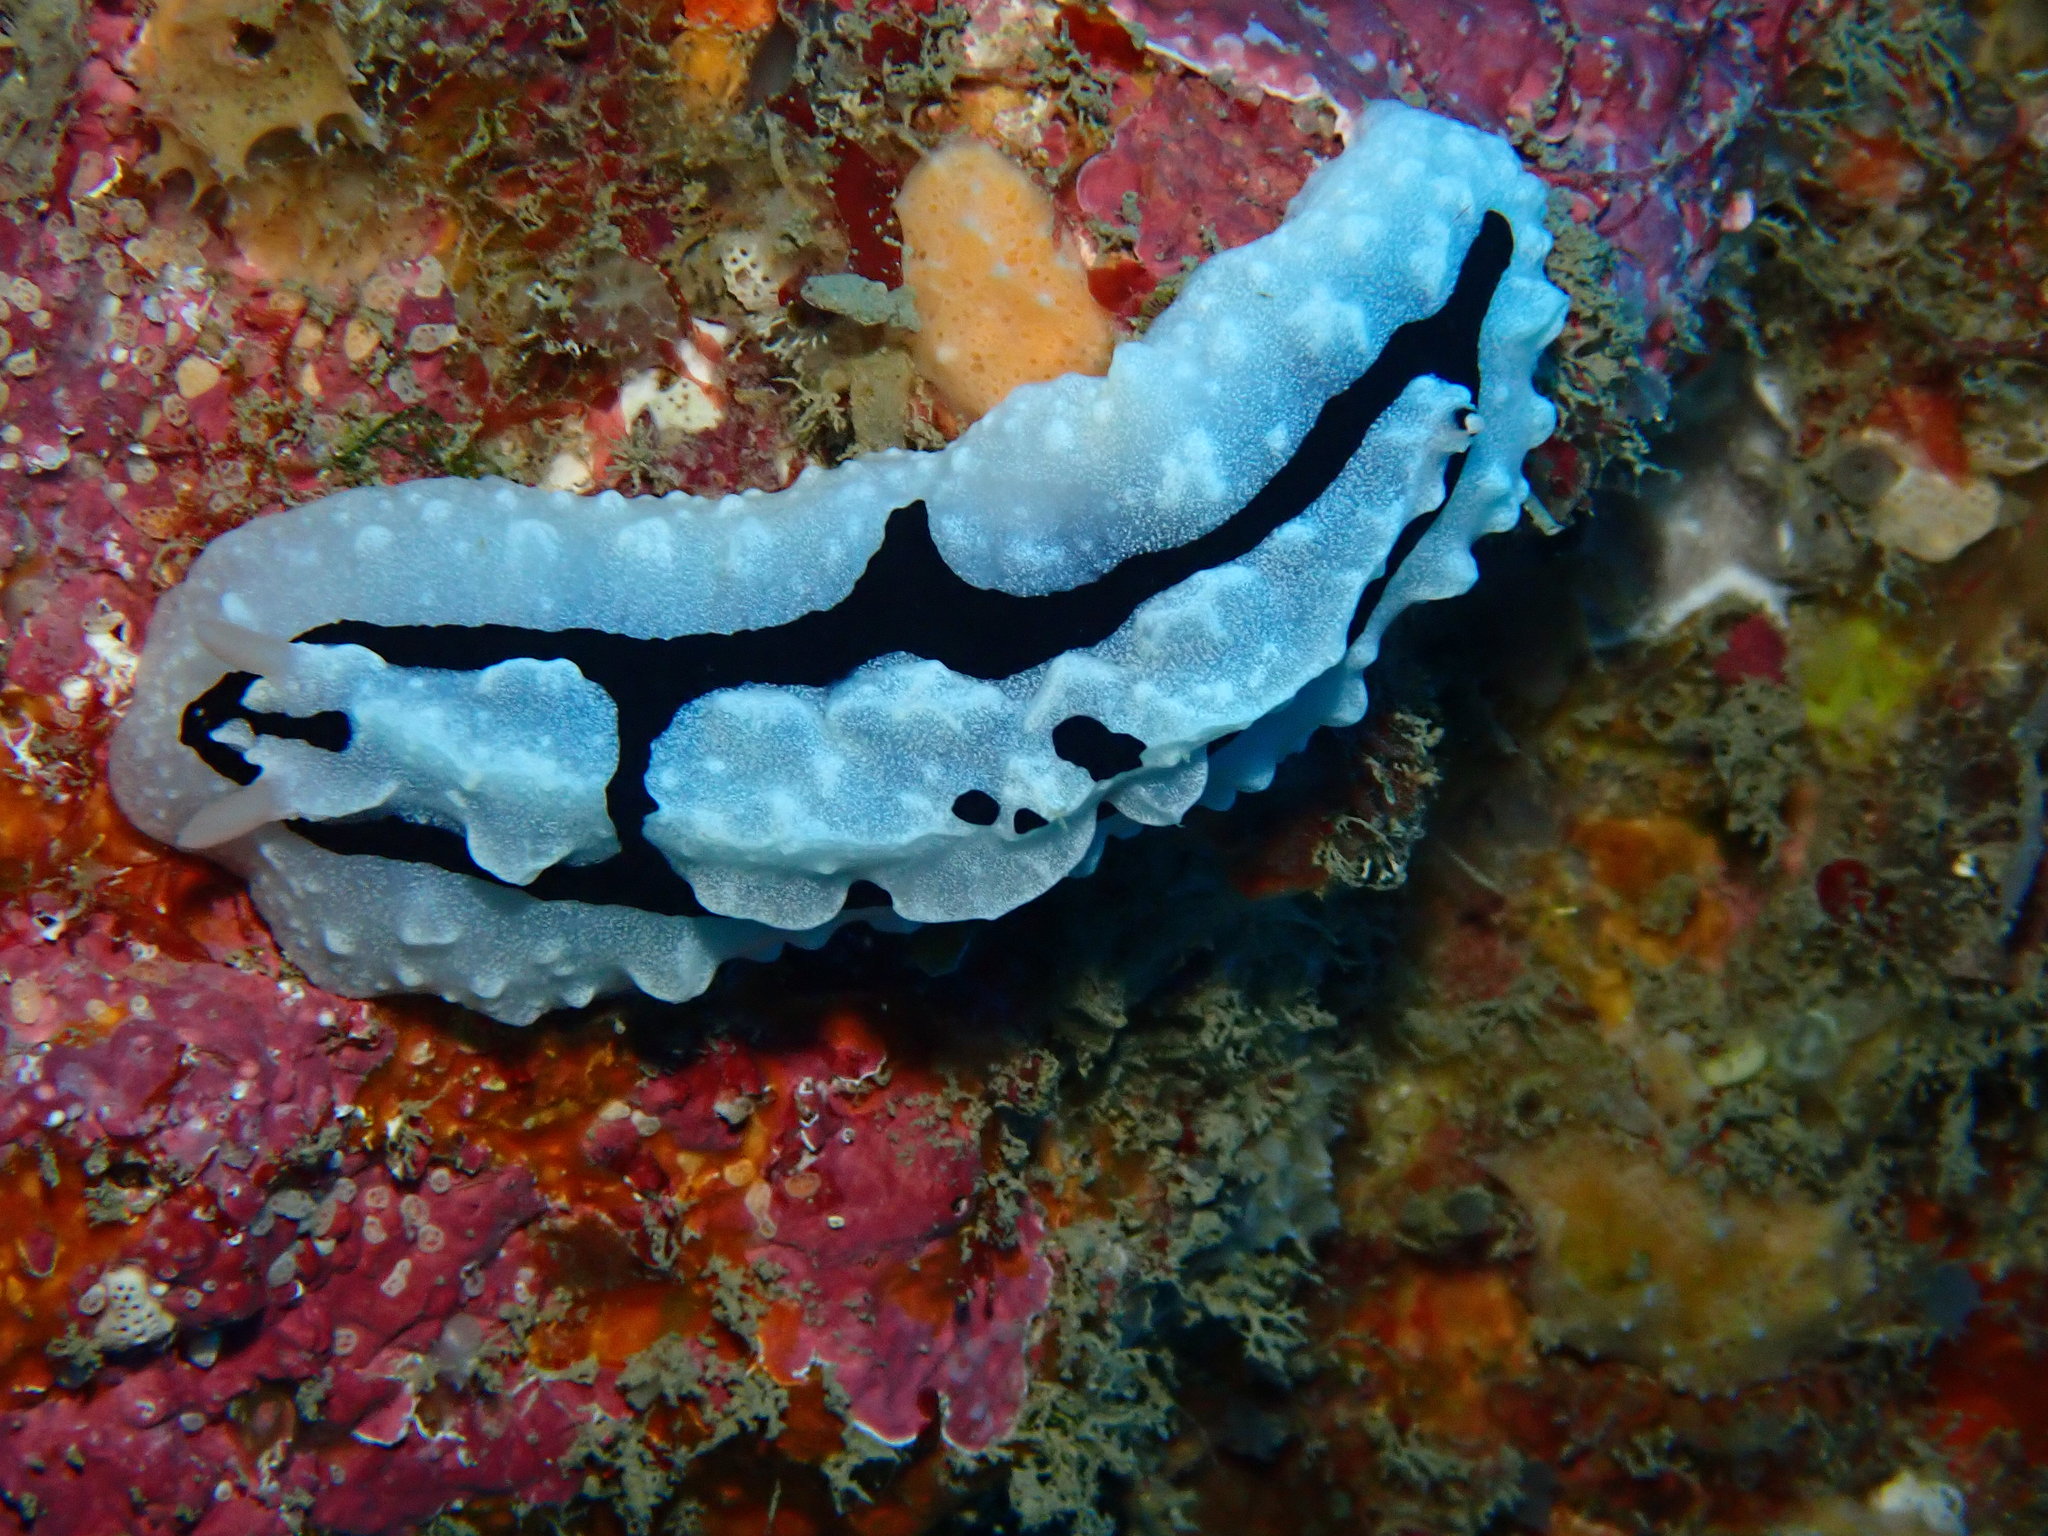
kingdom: Animalia
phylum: Mollusca
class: Gastropoda
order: Nudibranchia
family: Phyllidiidae
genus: Phyllidiopsis
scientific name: Phyllidiopsis shireenae
